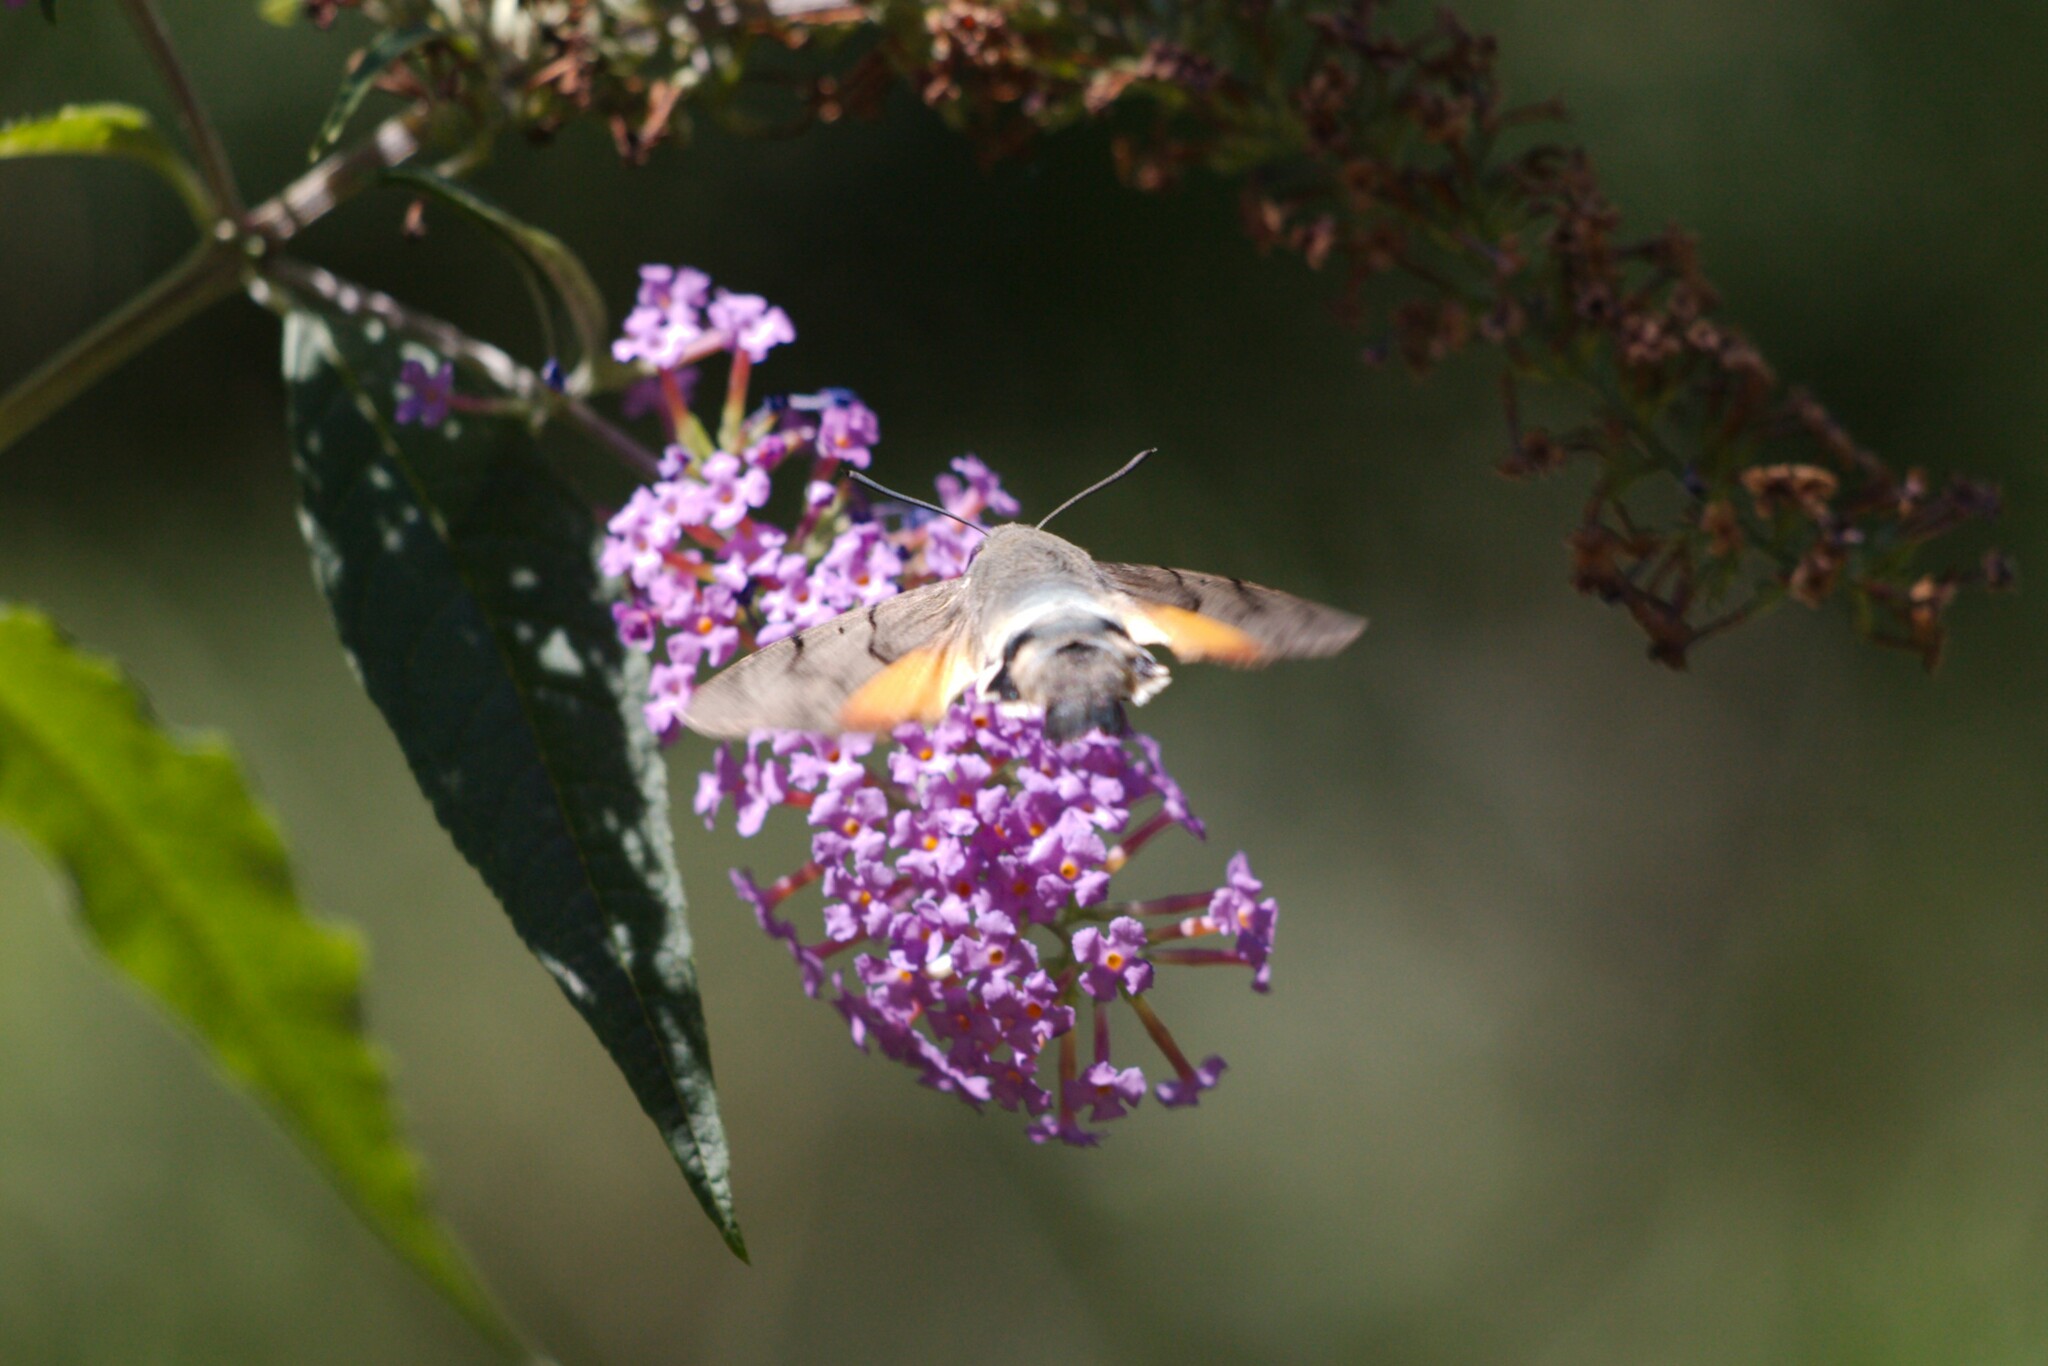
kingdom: Animalia
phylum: Arthropoda
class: Insecta
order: Lepidoptera
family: Sphingidae
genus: Macroglossum
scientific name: Macroglossum stellatarum
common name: Humming-bird hawk-moth
